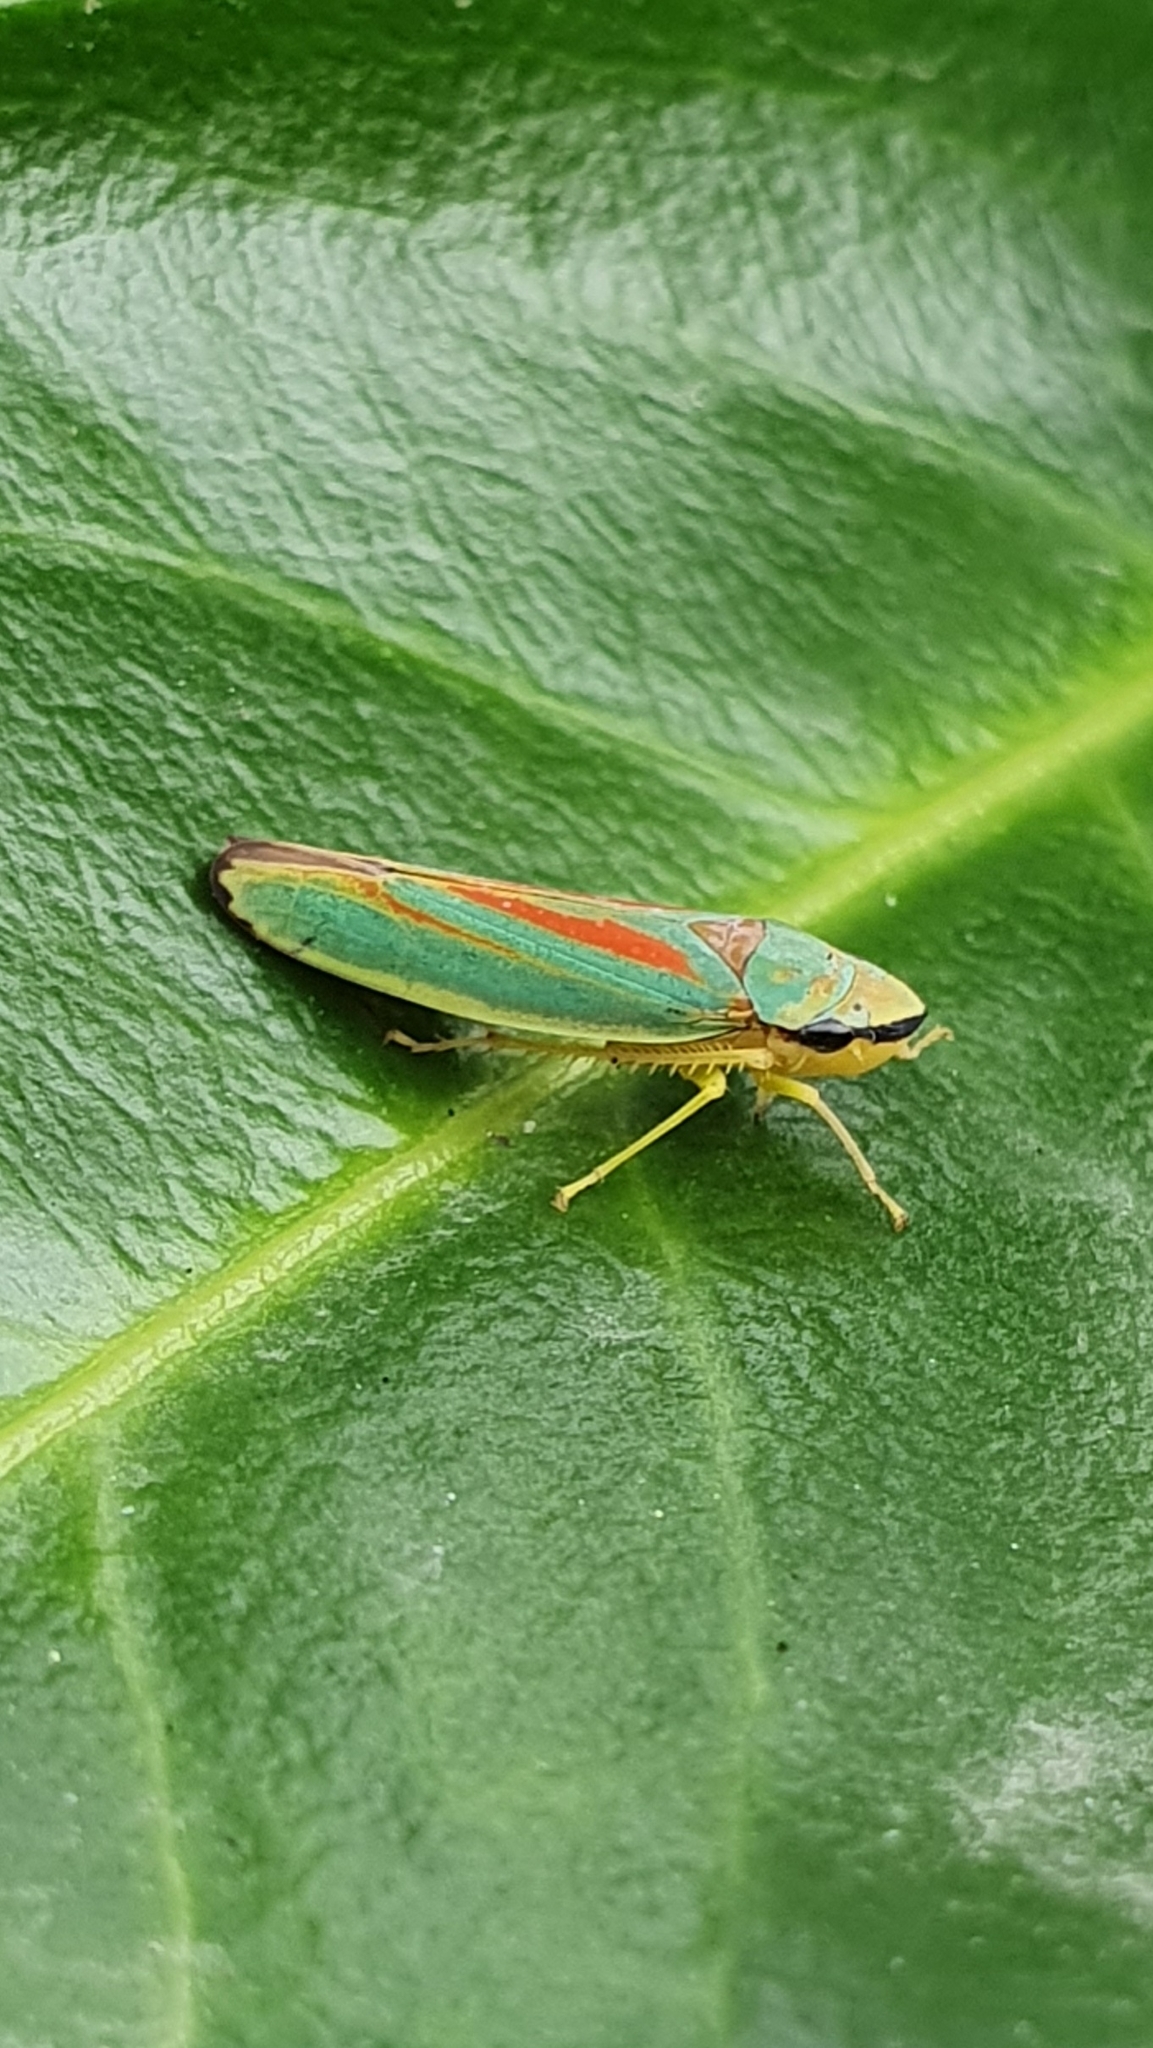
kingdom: Animalia
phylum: Arthropoda
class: Insecta
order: Hemiptera
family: Cicadellidae
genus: Graphocephala
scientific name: Graphocephala fennahi
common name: Rhododendron leafhopper
